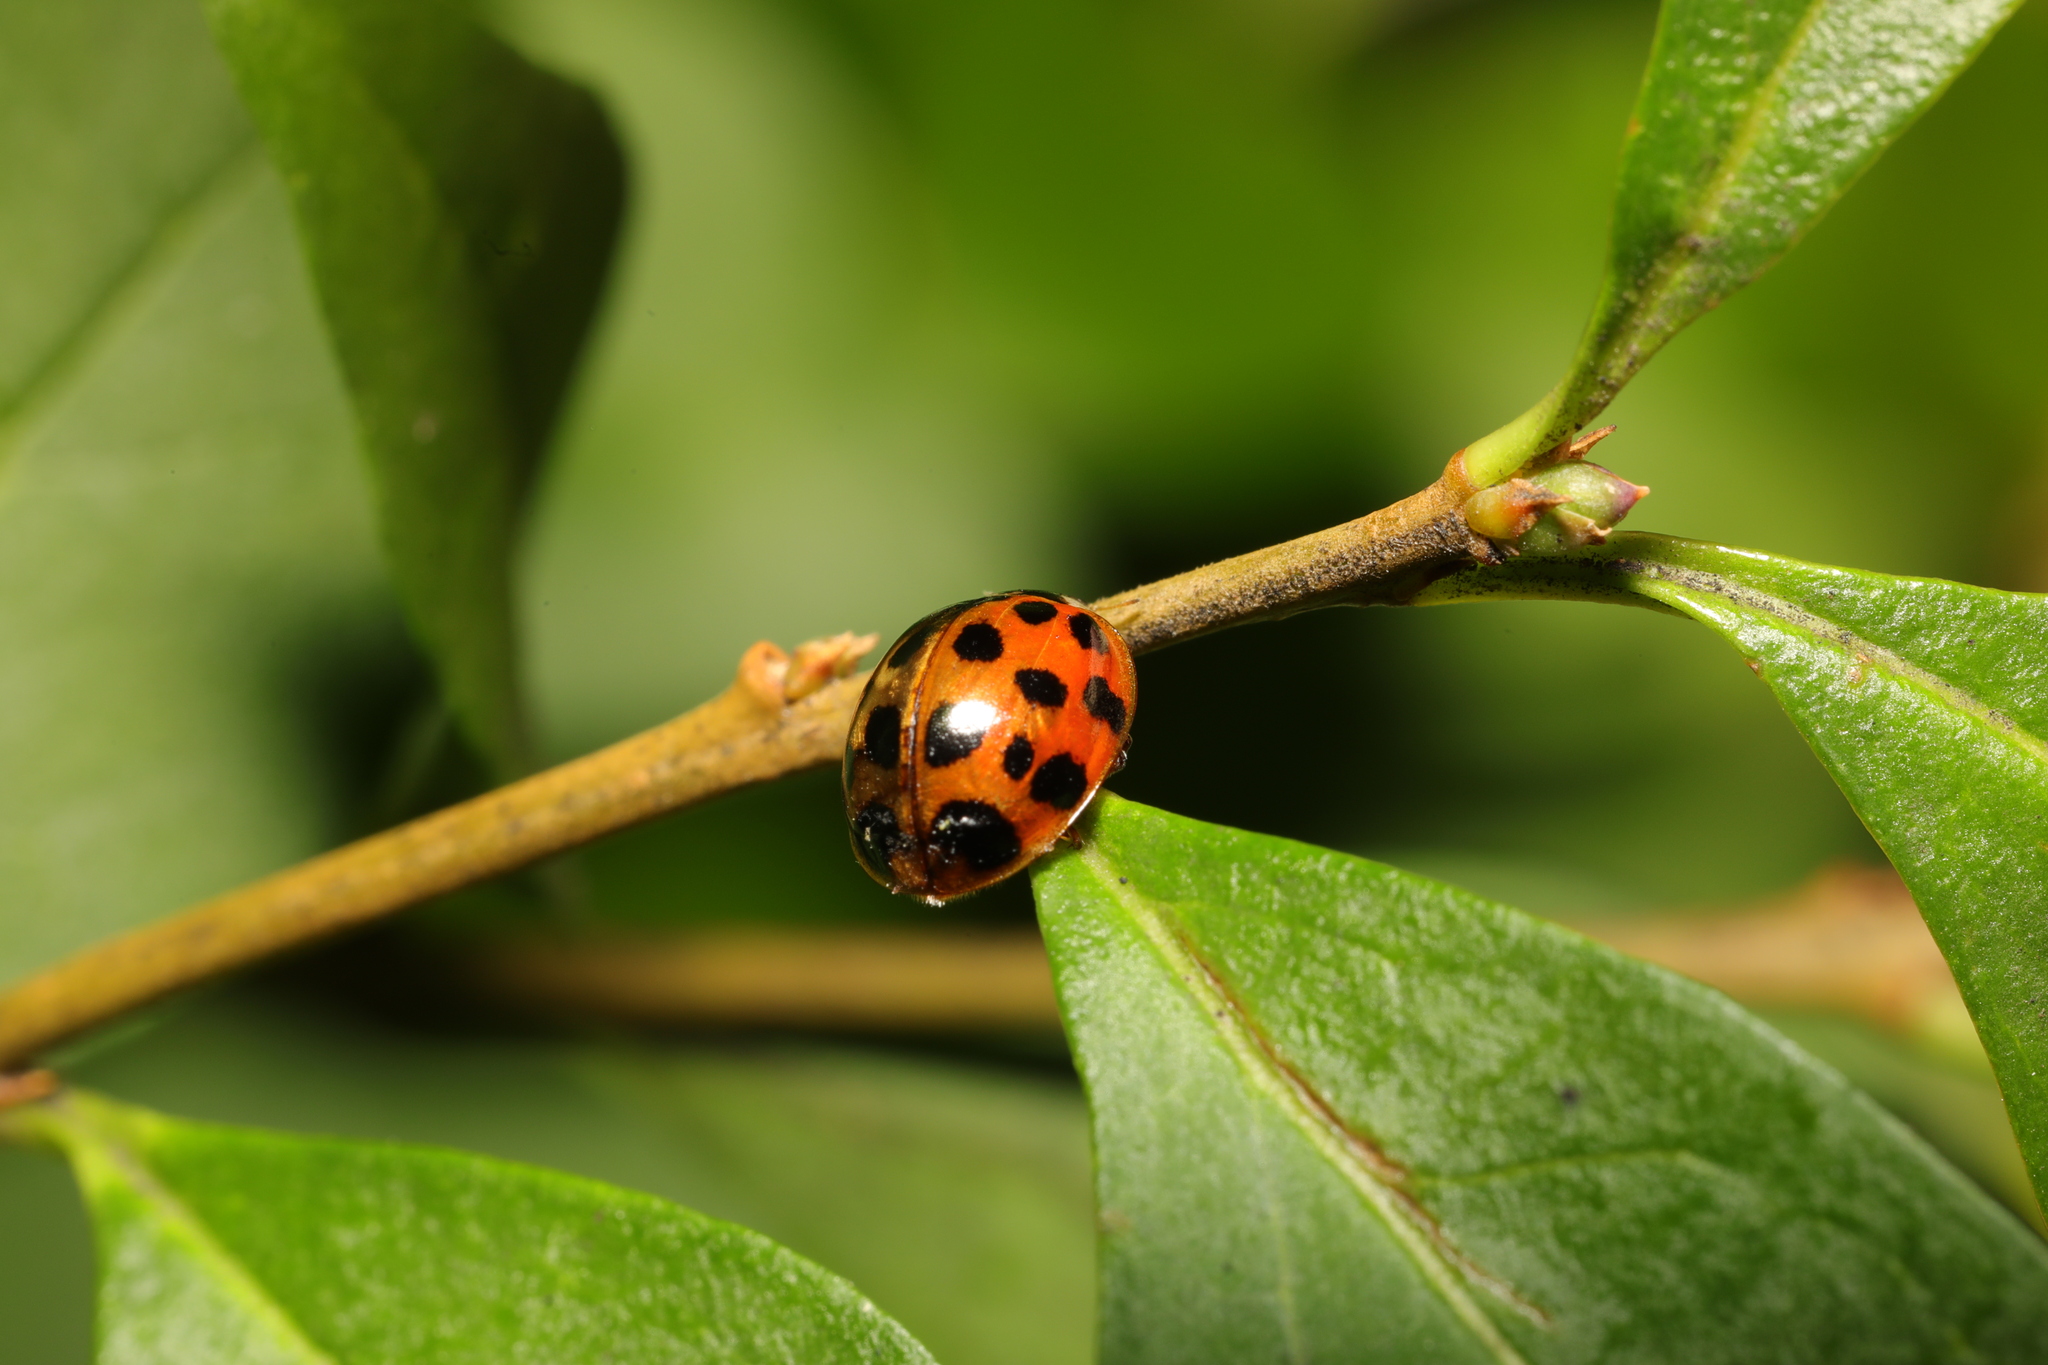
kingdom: Animalia
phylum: Arthropoda
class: Insecta
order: Coleoptera
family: Coccinellidae
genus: Harmonia
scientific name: Harmonia axyridis
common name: Harlequin ladybird
